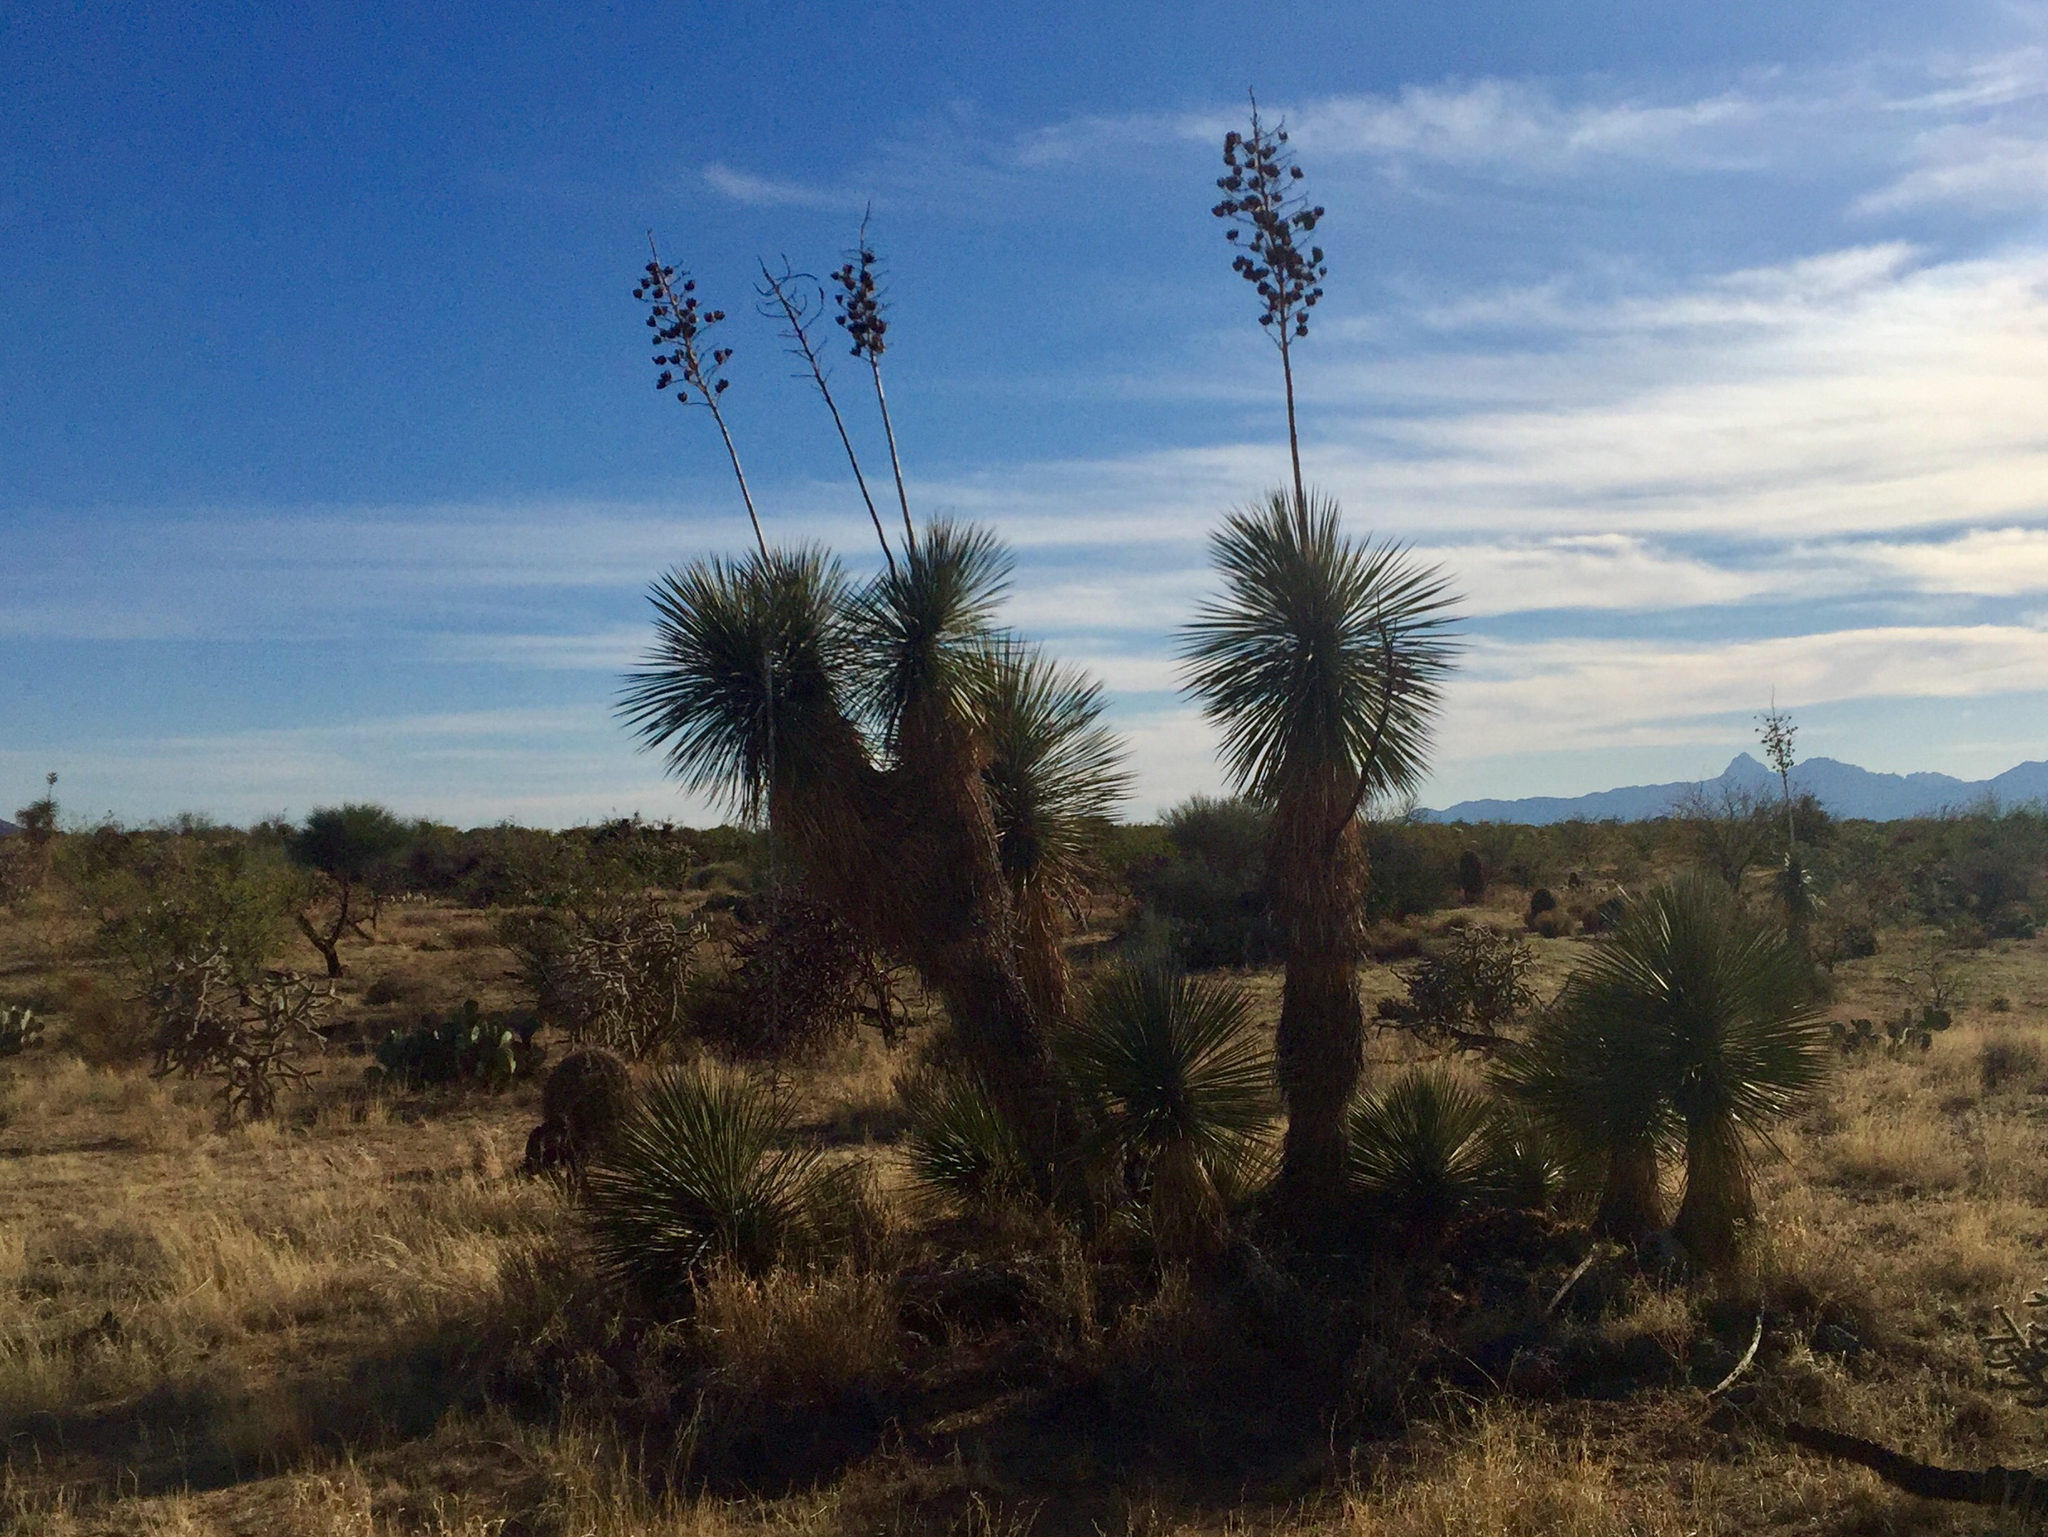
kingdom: Plantae
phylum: Tracheophyta
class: Liliopsida
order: Asparagales
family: Asparagaceae
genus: Yucca
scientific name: Yucca elata
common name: Palmella
